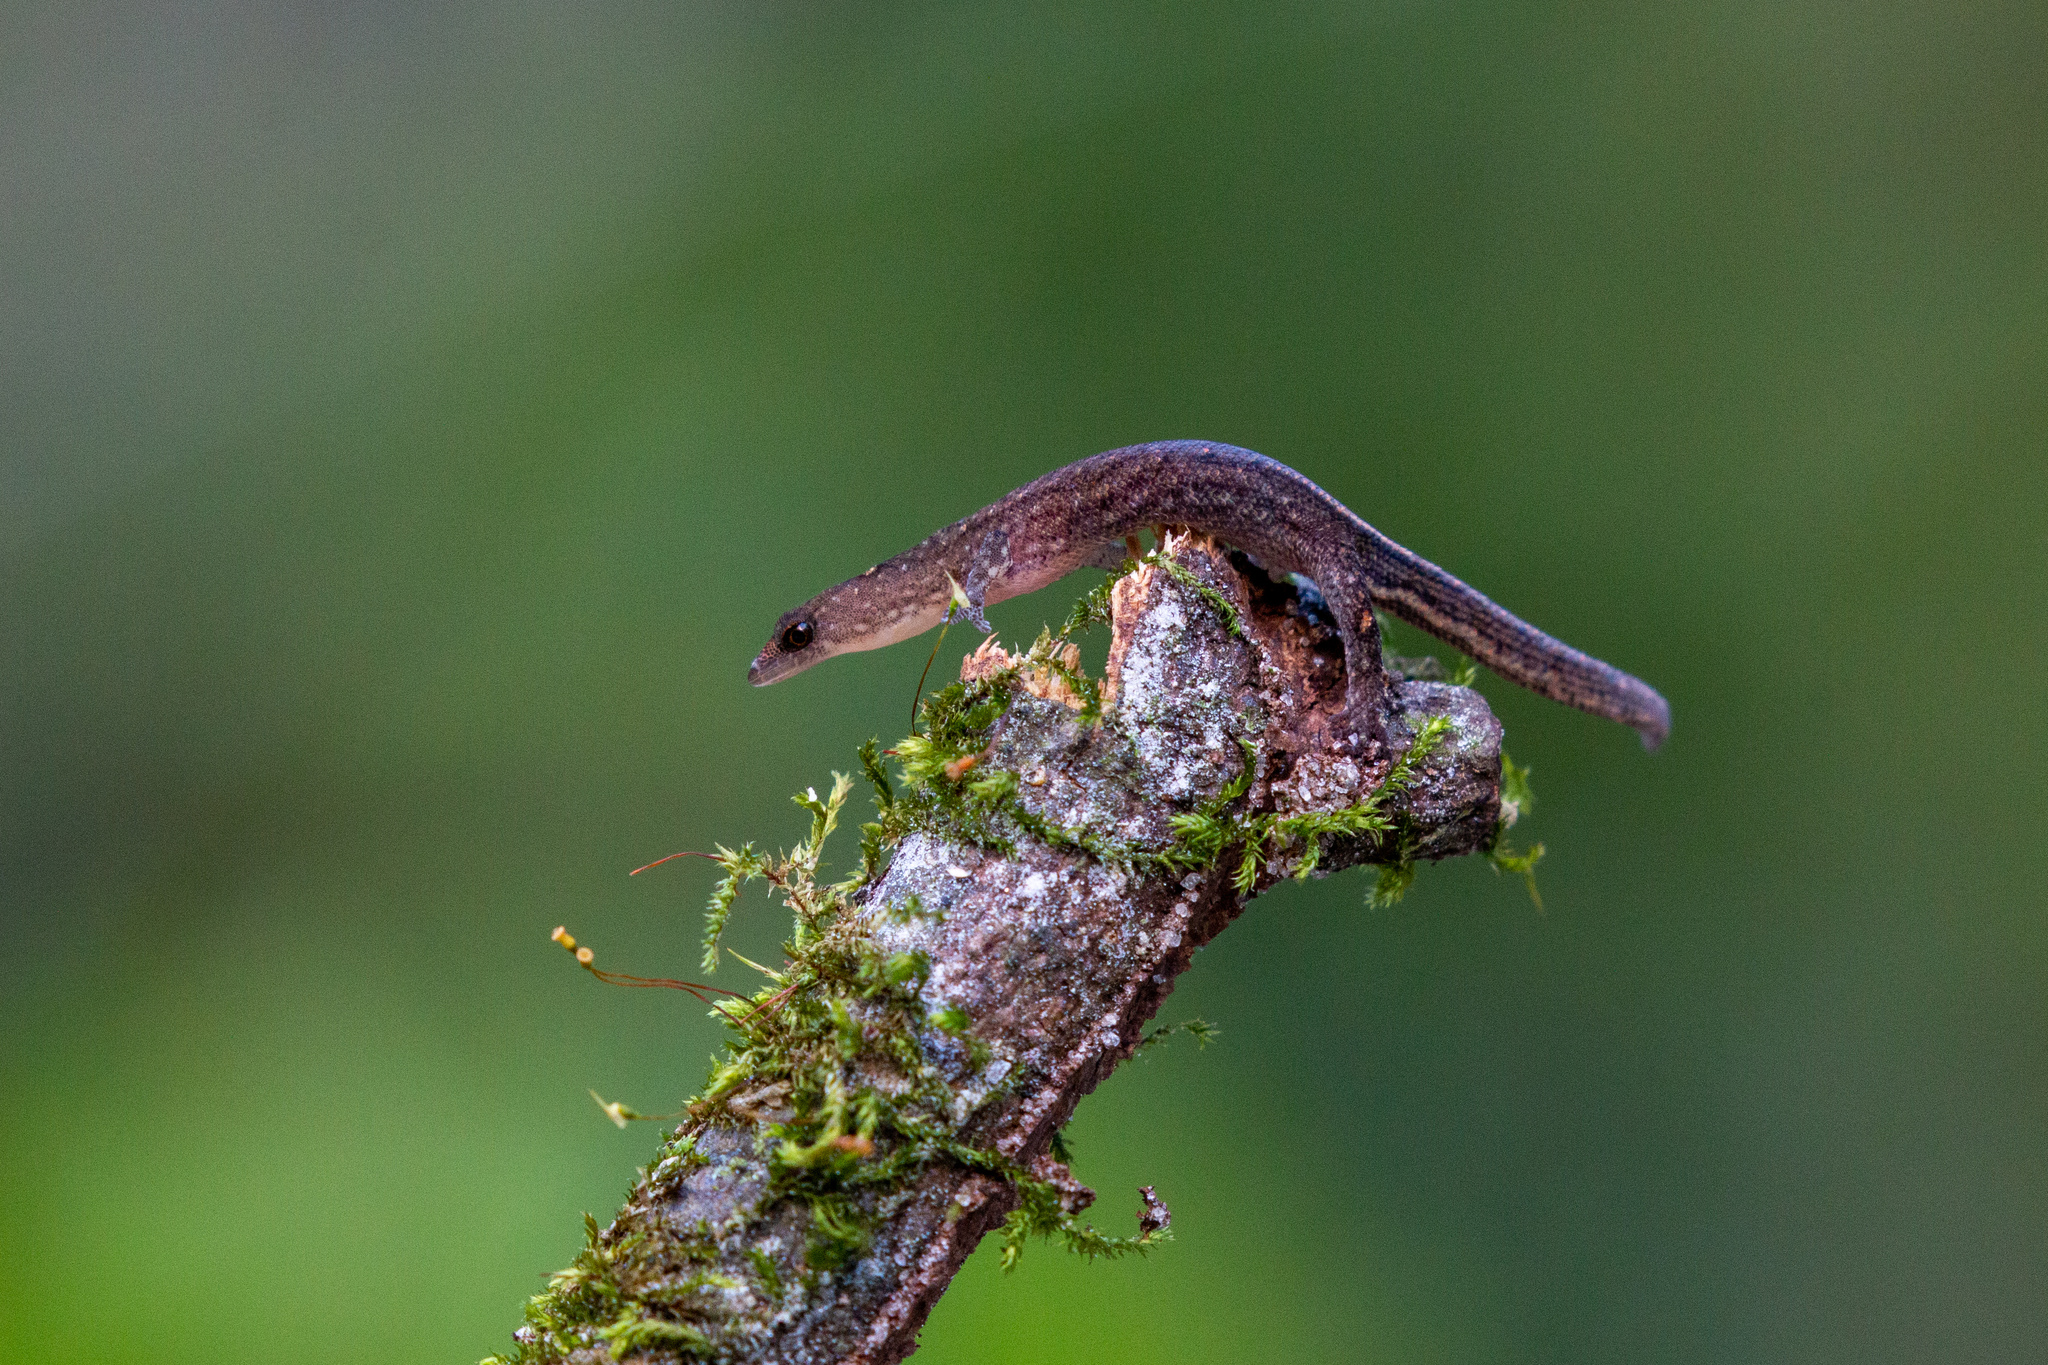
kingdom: Animalia
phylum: Chordata
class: Squamata
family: Sphaerodactylidae
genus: Coleodactylus
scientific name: Coleodactylus meridionalis
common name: Meridian gecko
